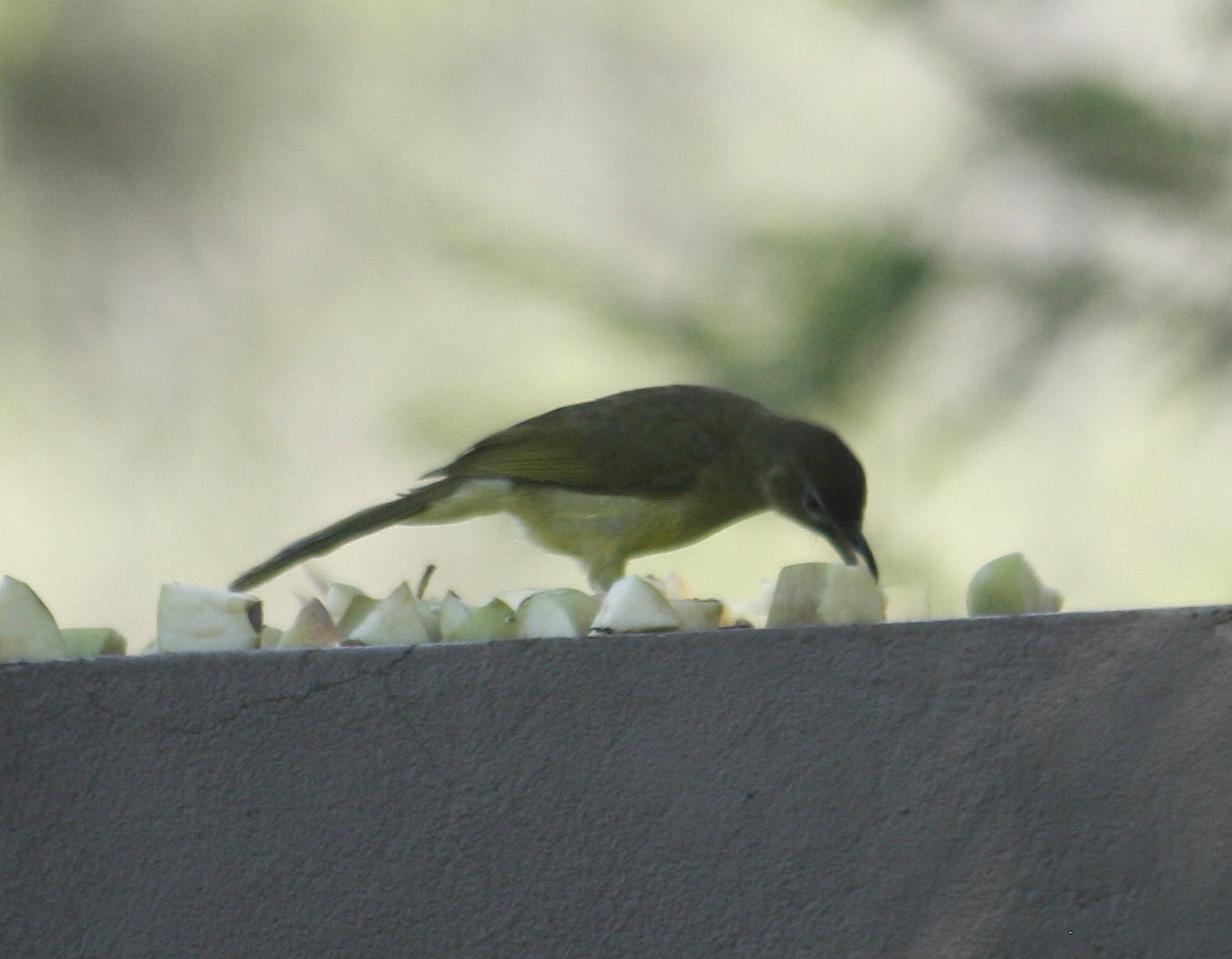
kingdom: Animalia
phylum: Chordata
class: Aves
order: Passeriformes
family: Pycnonotidae
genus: Chlorocichla
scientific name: Chlorocichla flaviventris
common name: Yellow-bellied greenbul
